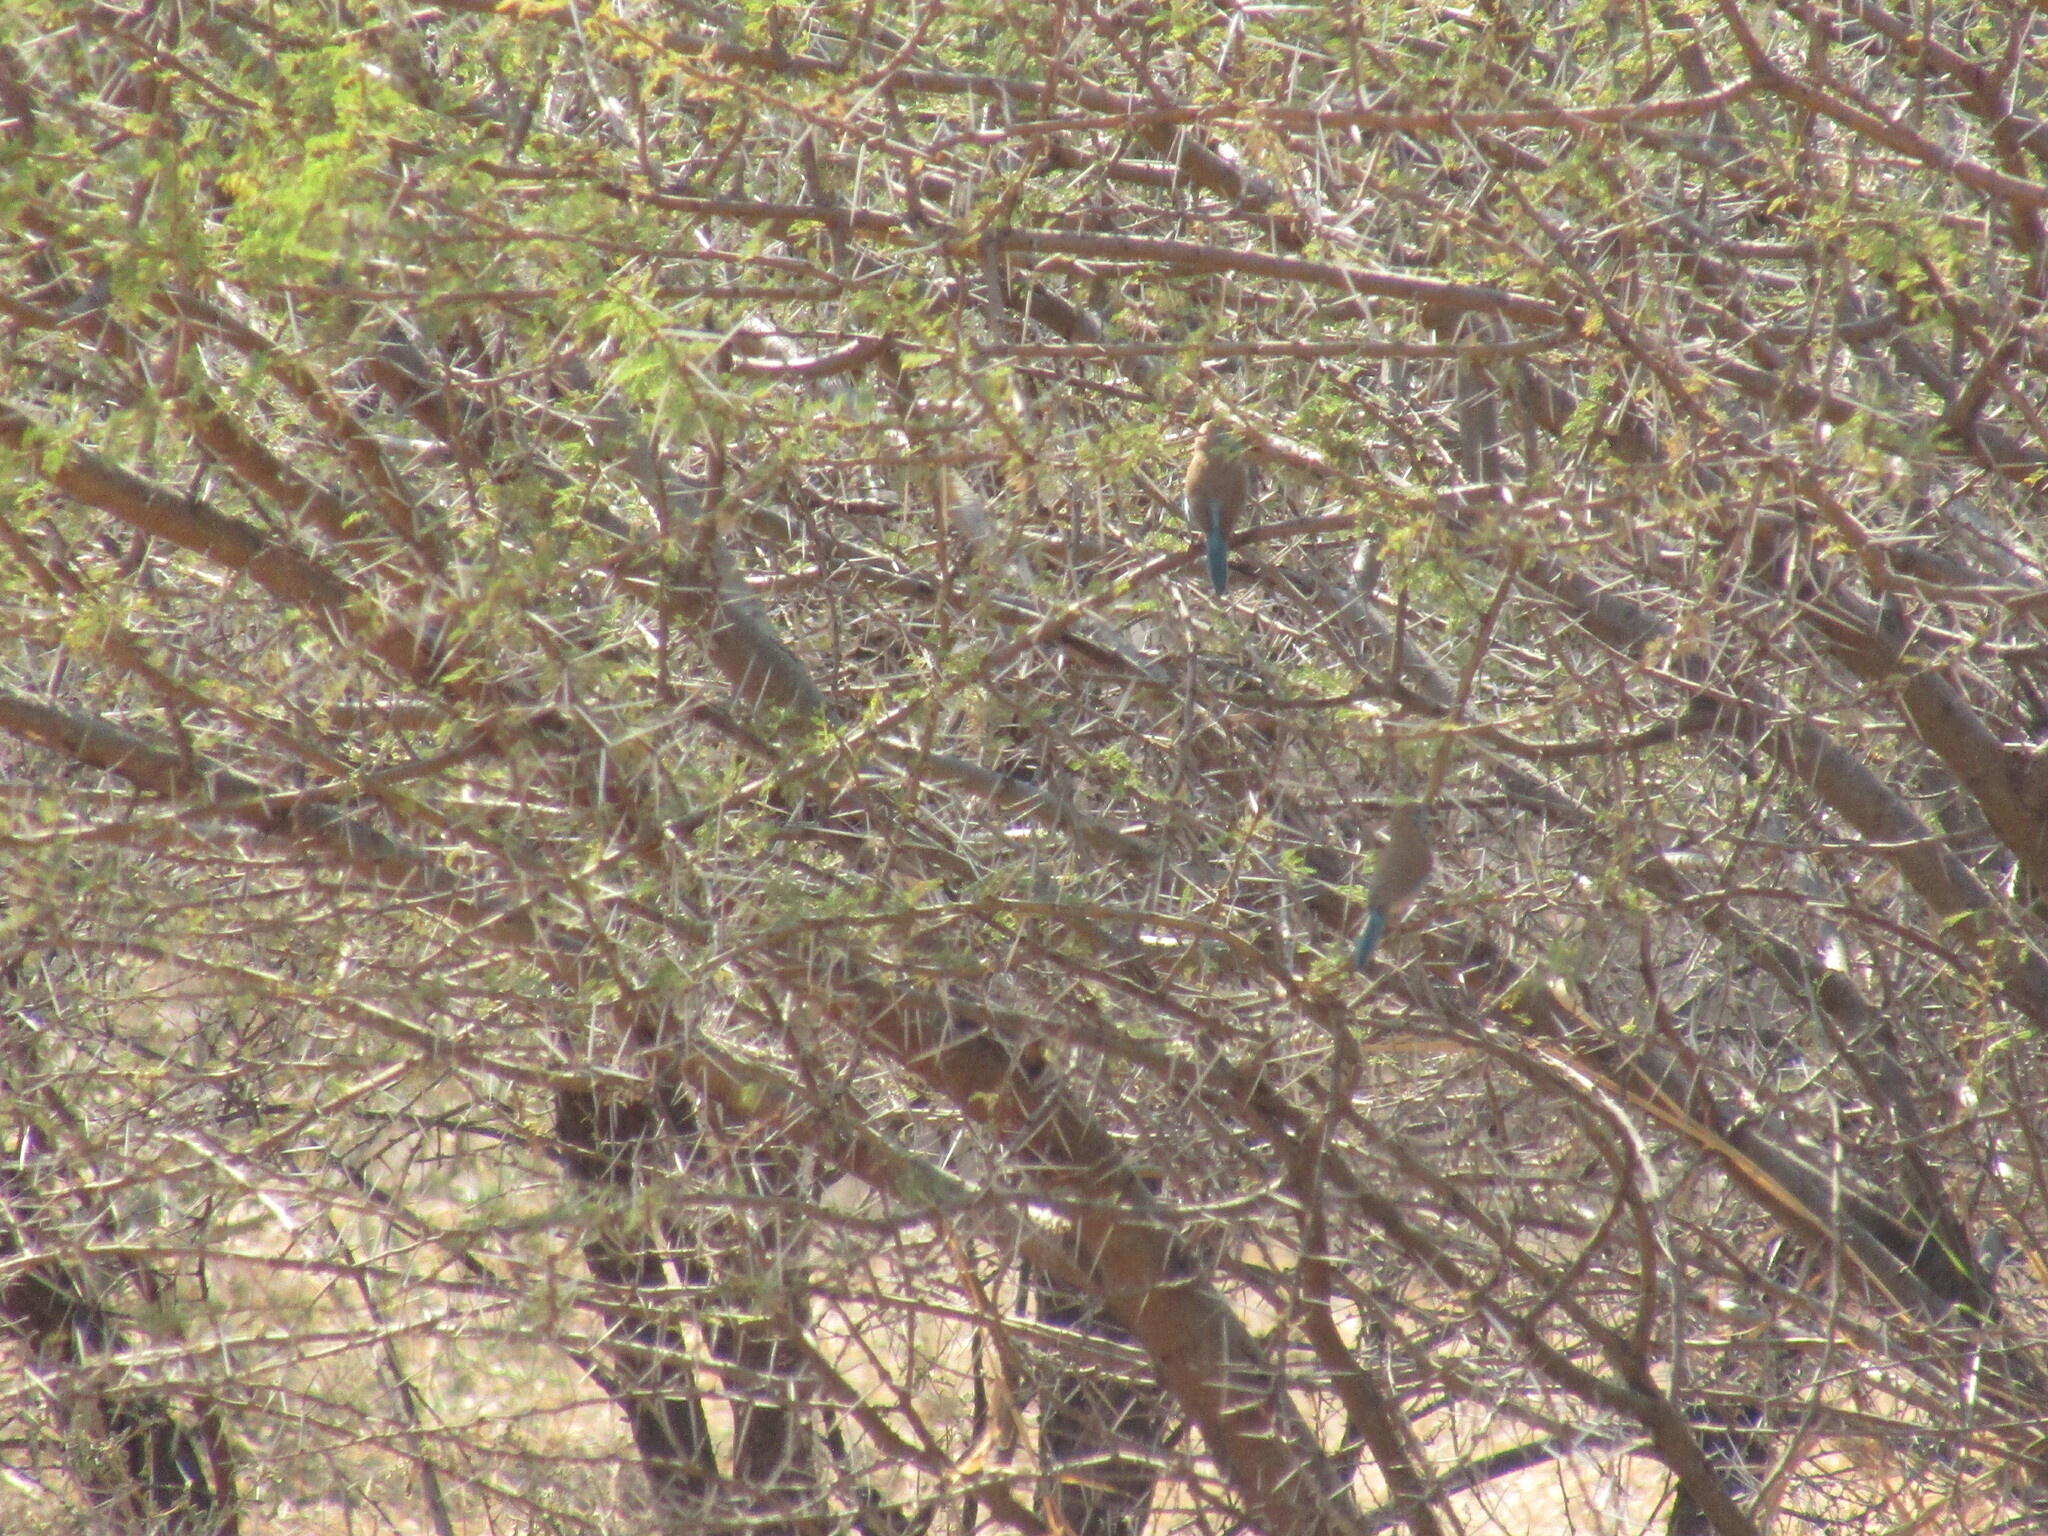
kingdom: Animalia
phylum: Chordata
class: Aves
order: Passeriformes
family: Estrildidae
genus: Uraeginthus
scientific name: Uraeginthus angolensis
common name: Blue waxbill
